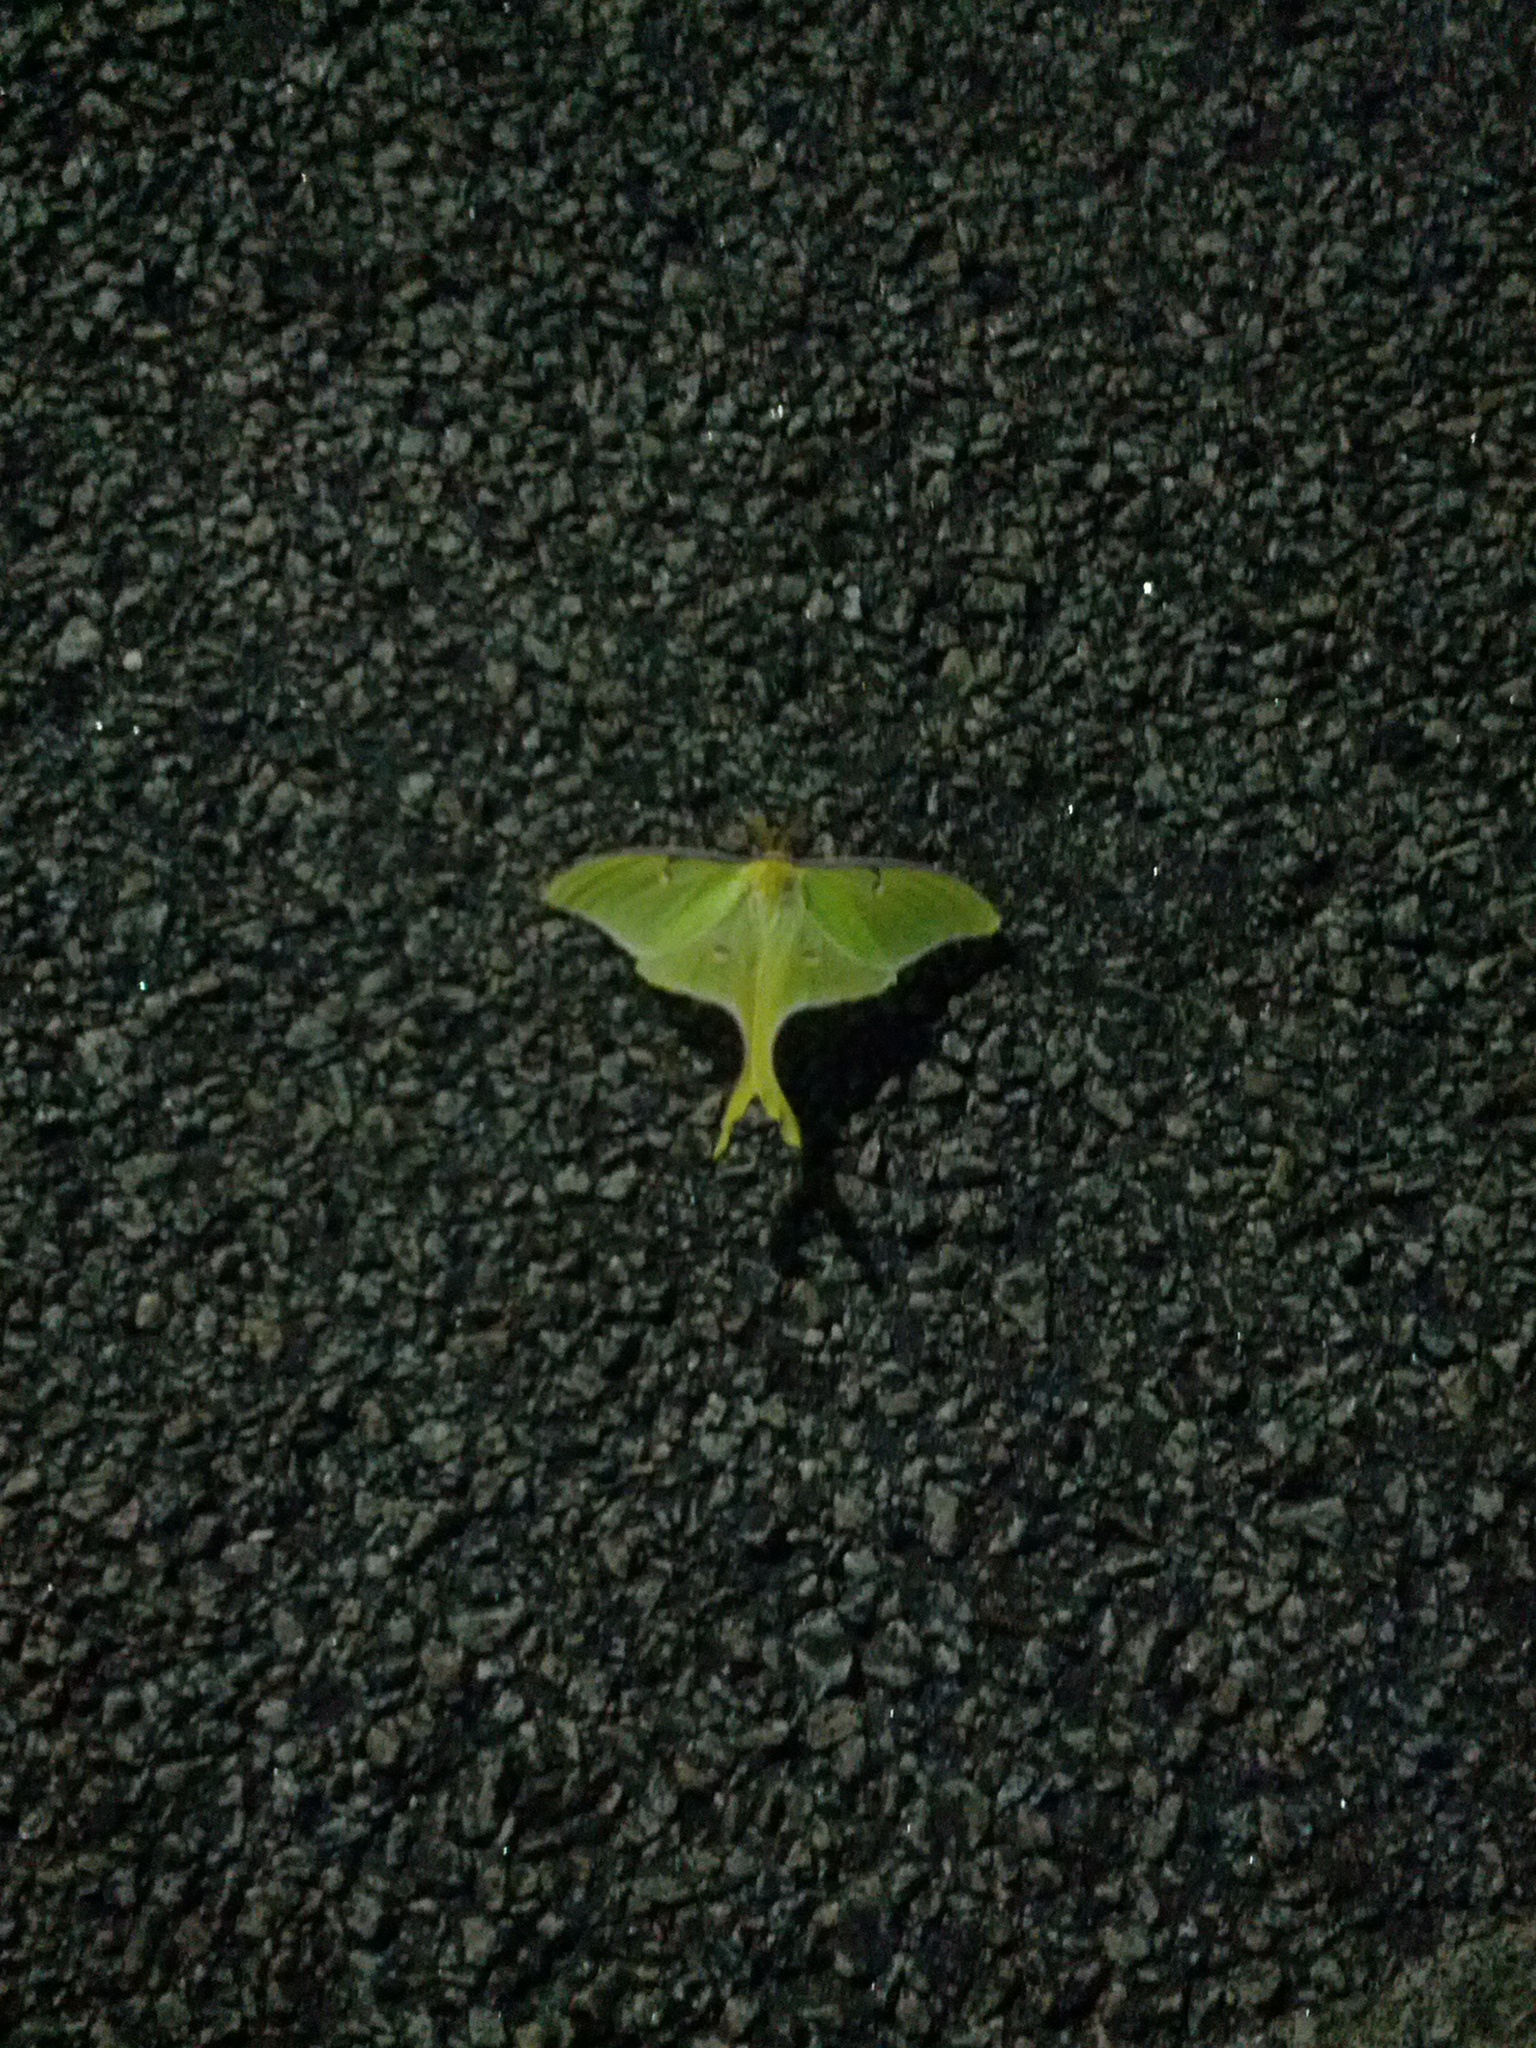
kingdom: Animalia
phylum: Arthropoda
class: Insecta
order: Lepidoptera
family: Saturniidae
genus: Actias
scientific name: Actias luna
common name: Luna moth
